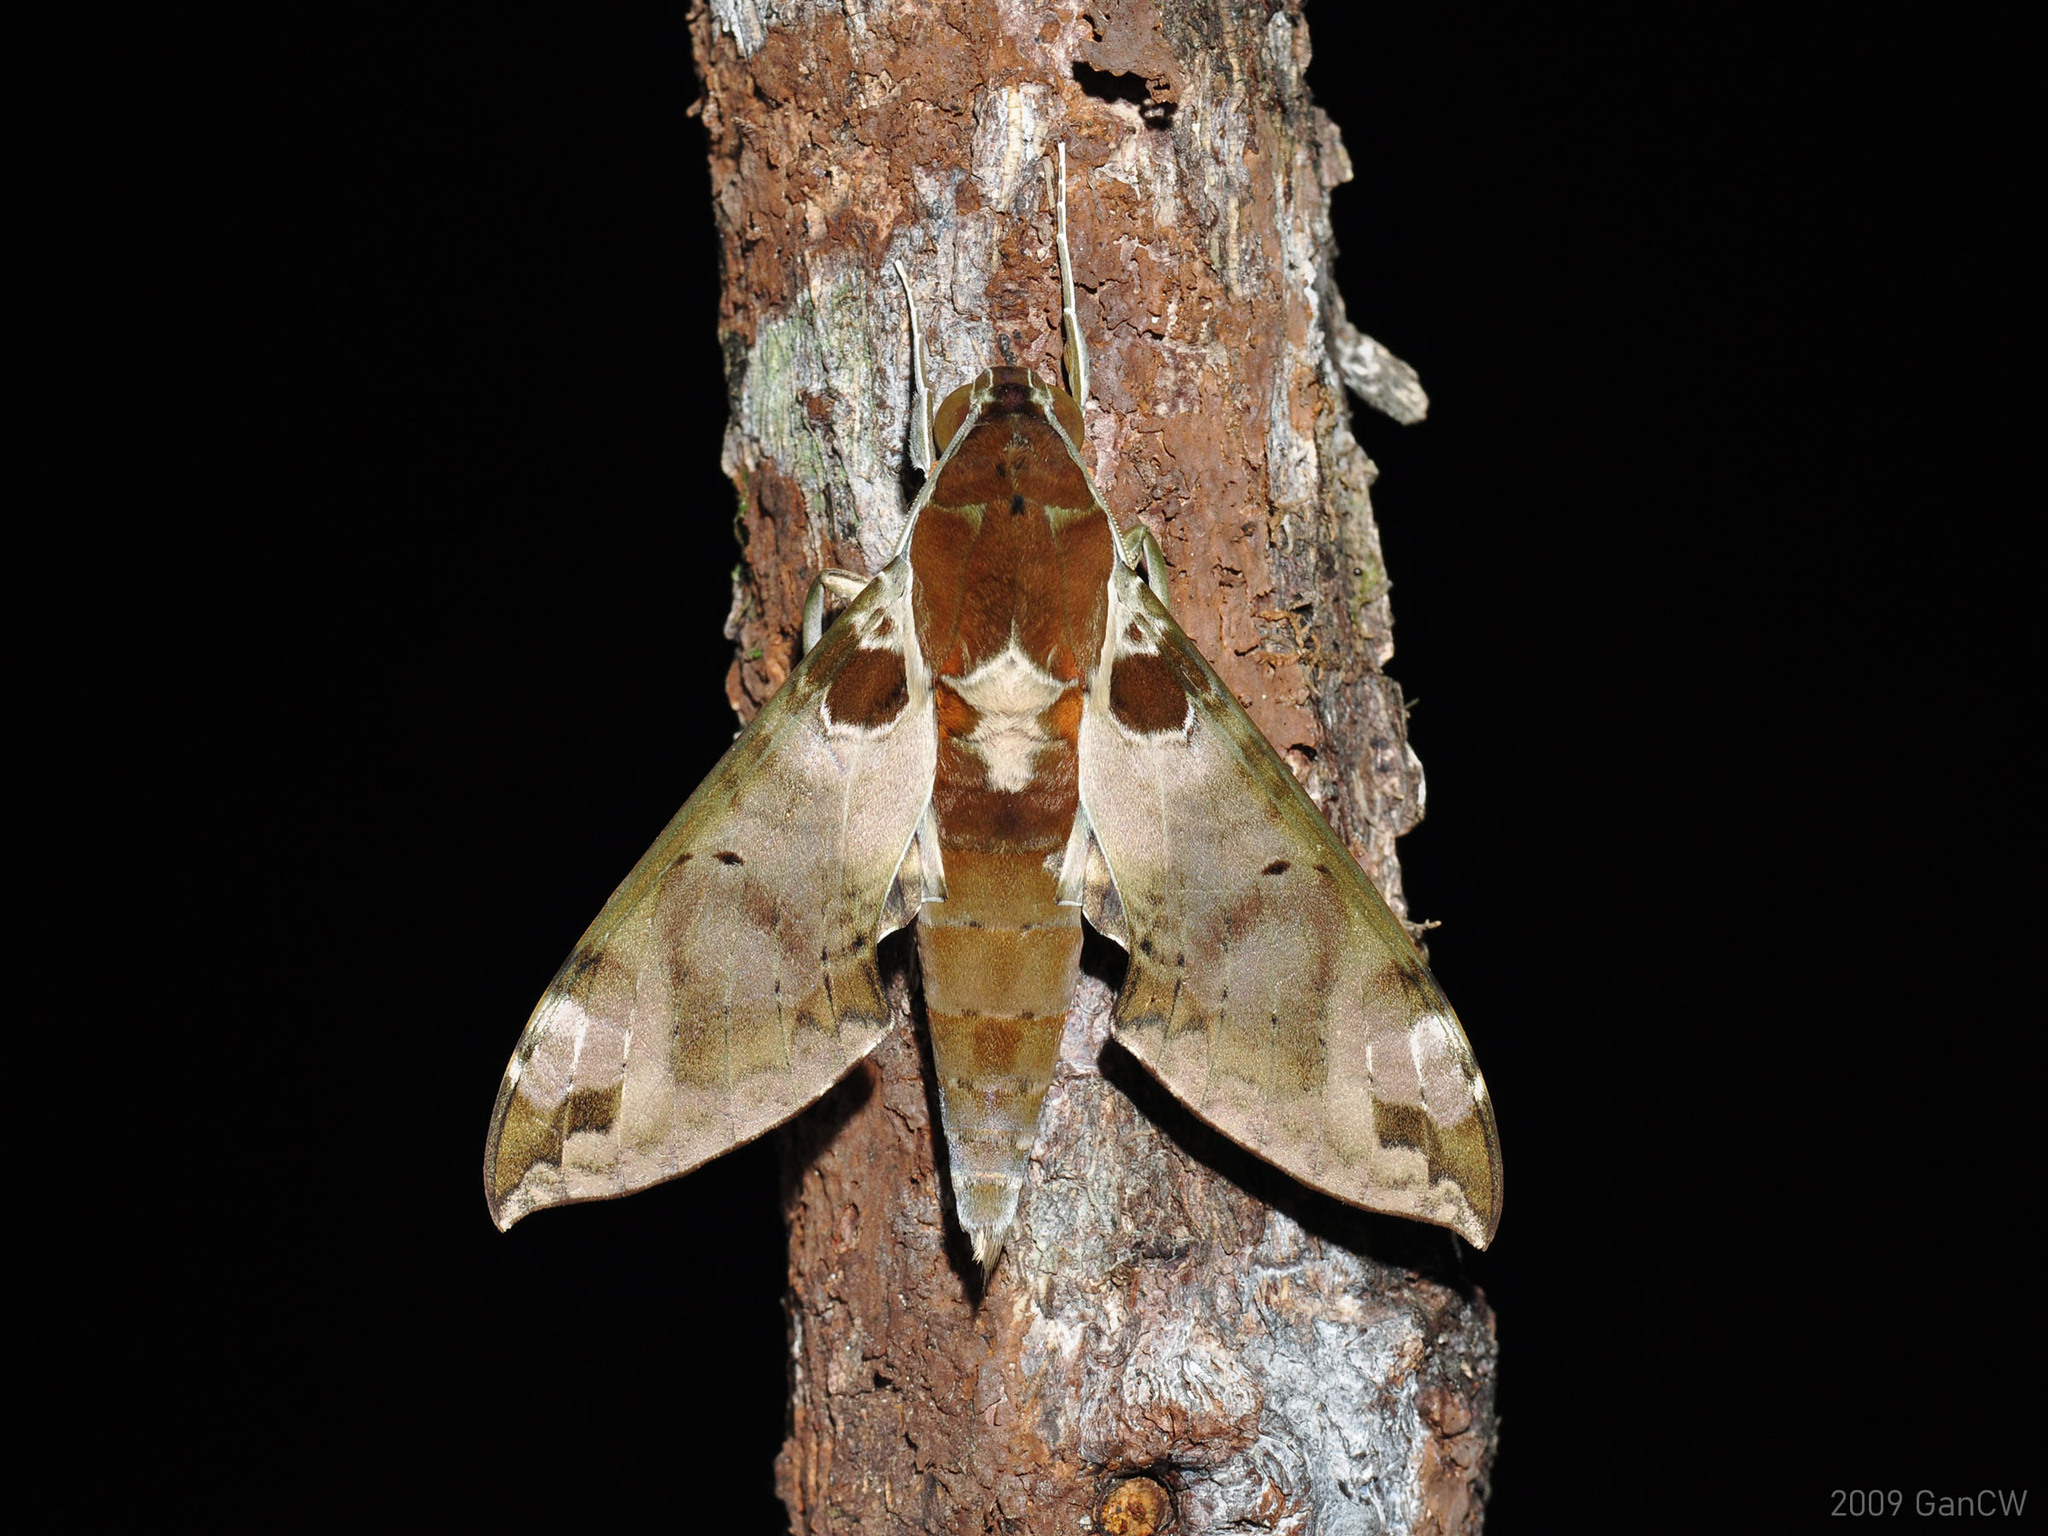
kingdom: Animalia
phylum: Arthropoda
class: Insecta
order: Lepidoptera
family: Sphingidae
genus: Cechenena
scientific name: Cechenena helops
